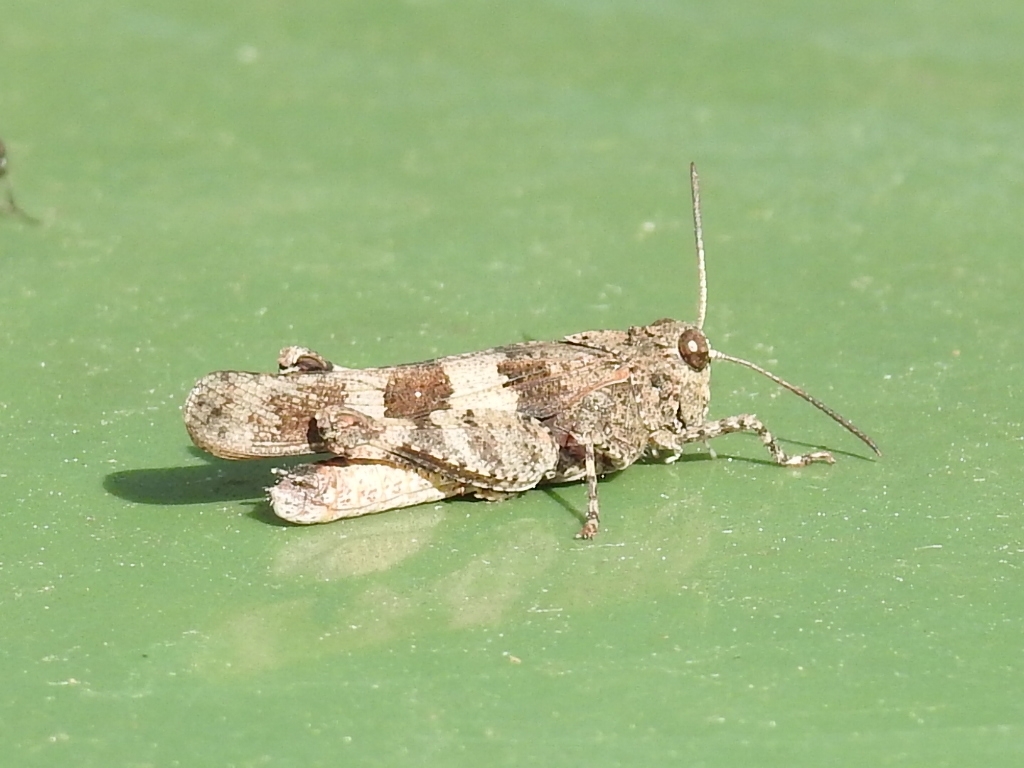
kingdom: Animalia
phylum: Arthropoda
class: Insecta
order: Orthoptera
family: Acrididae
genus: Oedipoda
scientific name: Oedipoda caerulescens
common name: Blue-winged grasshopper
